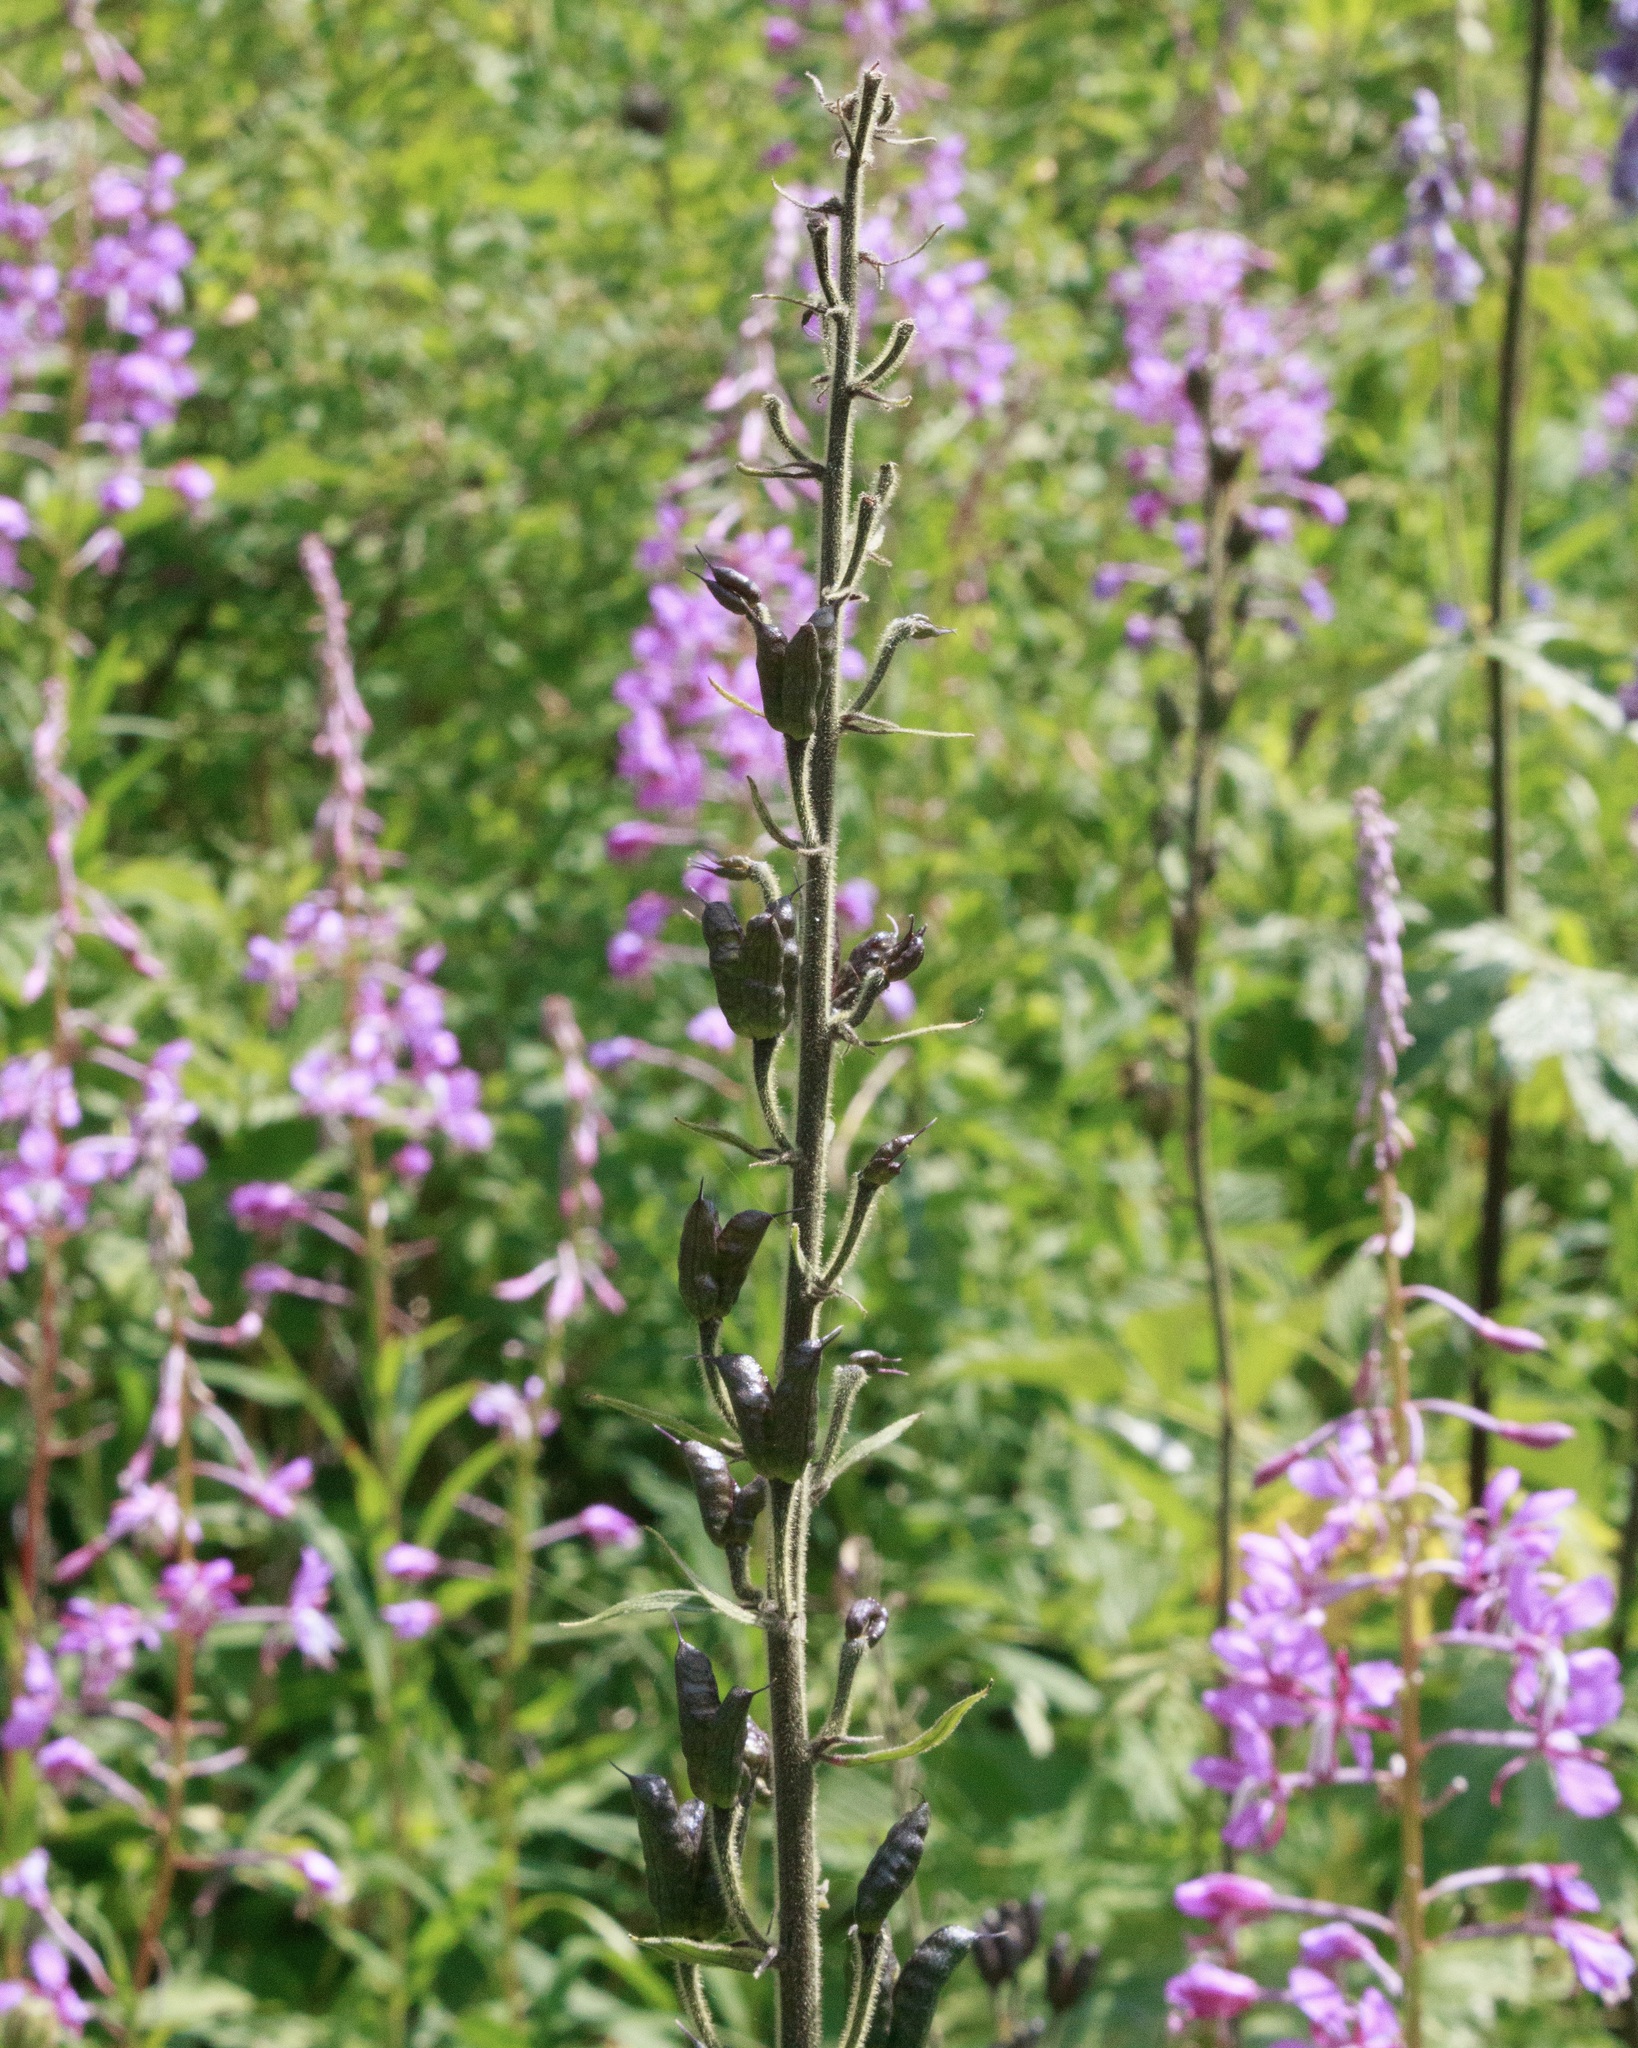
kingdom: Plantae
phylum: Tracheophyta
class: Magnoliopsida
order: Ranunculales
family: Ranunculaceae
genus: Aconitum
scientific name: Aconitum leucostomum
